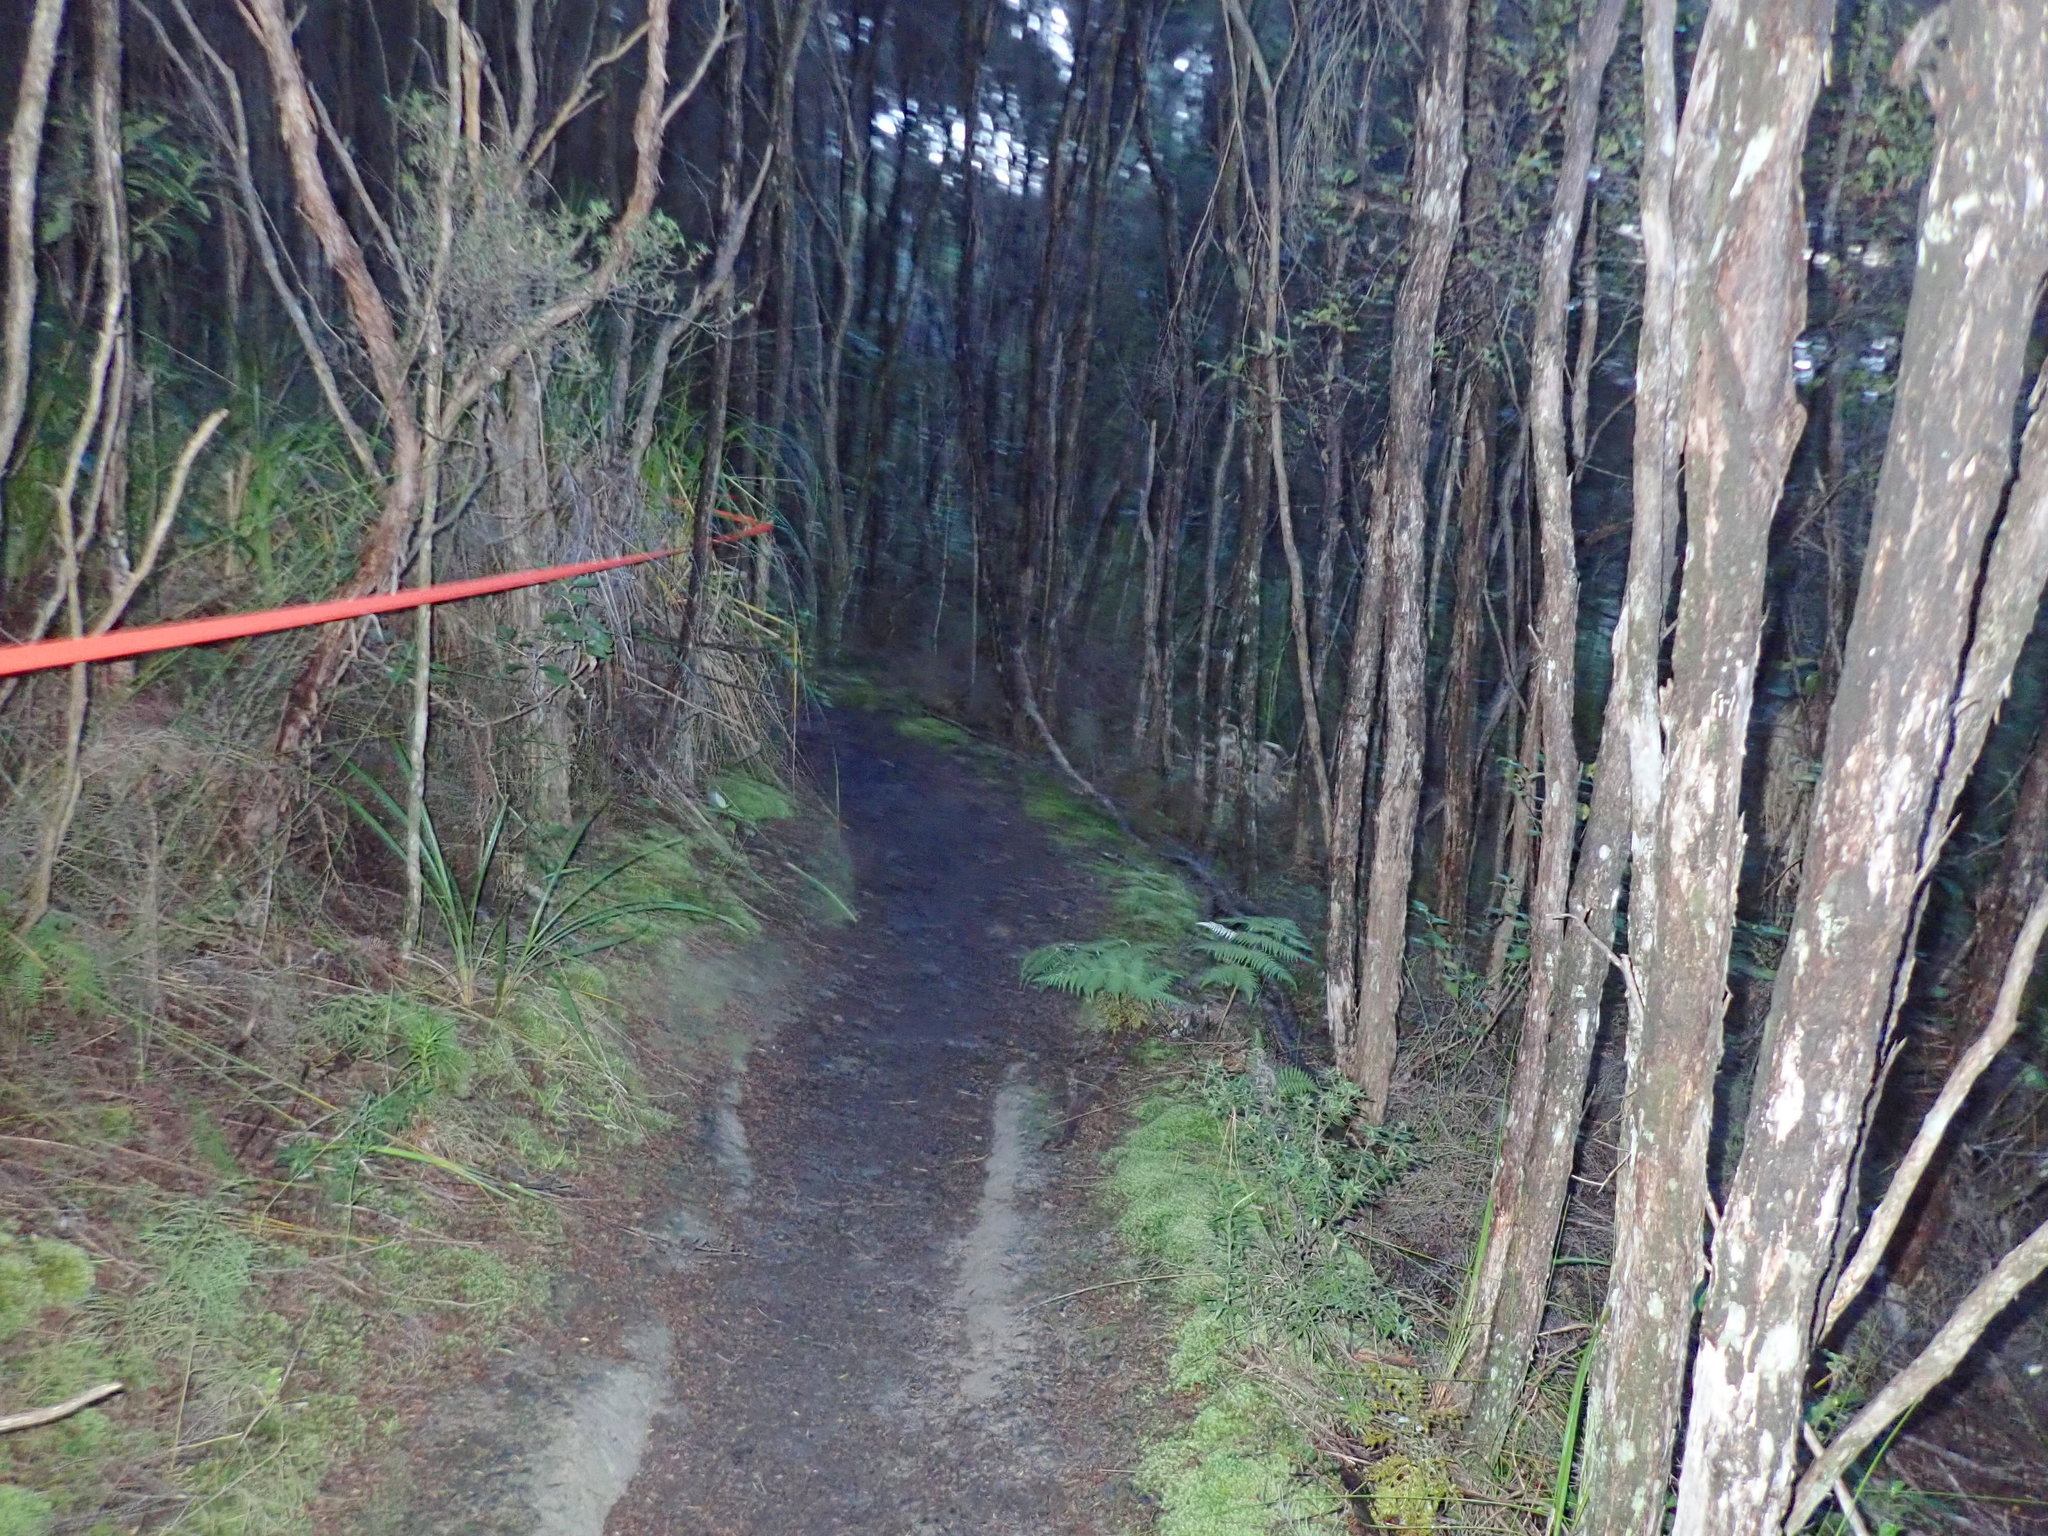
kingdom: Plantae
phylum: Tracheophyta
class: Polypodiopsida
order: Cyatheales
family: Cyatheaceae
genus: Alsophila
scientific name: Alsophila dealbata
